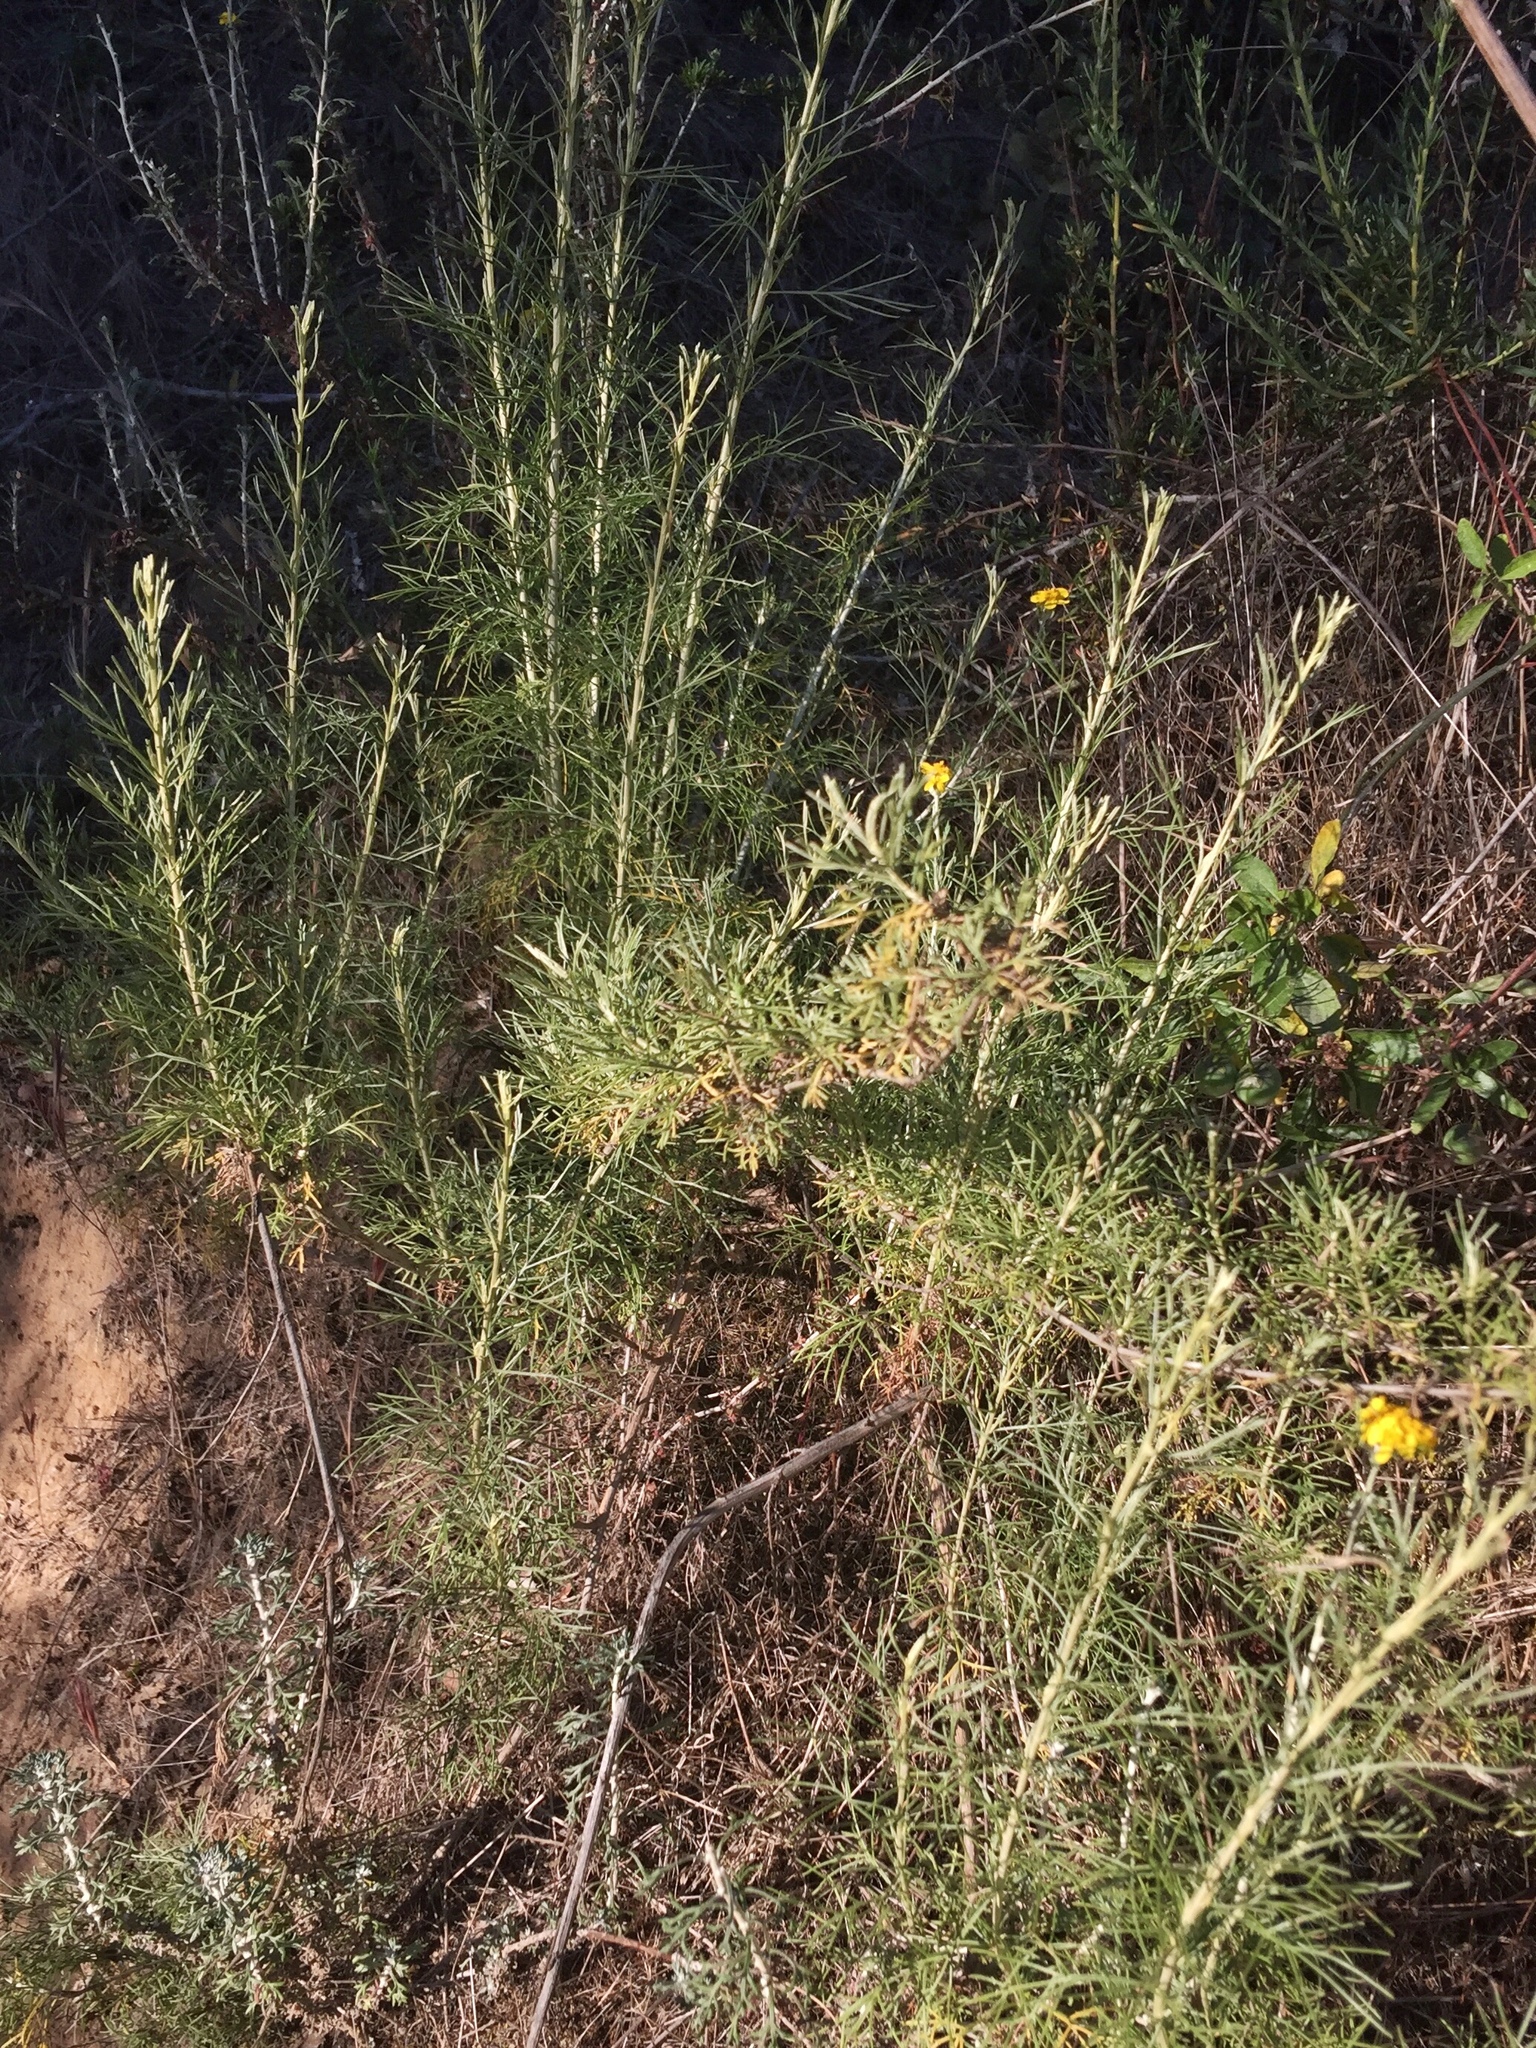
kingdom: Plantae
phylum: Tracheophyta
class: Magnoliopsida
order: Asterales
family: Asteraceae
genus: Artemisia
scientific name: Artemisia californica
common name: California sagebrush
